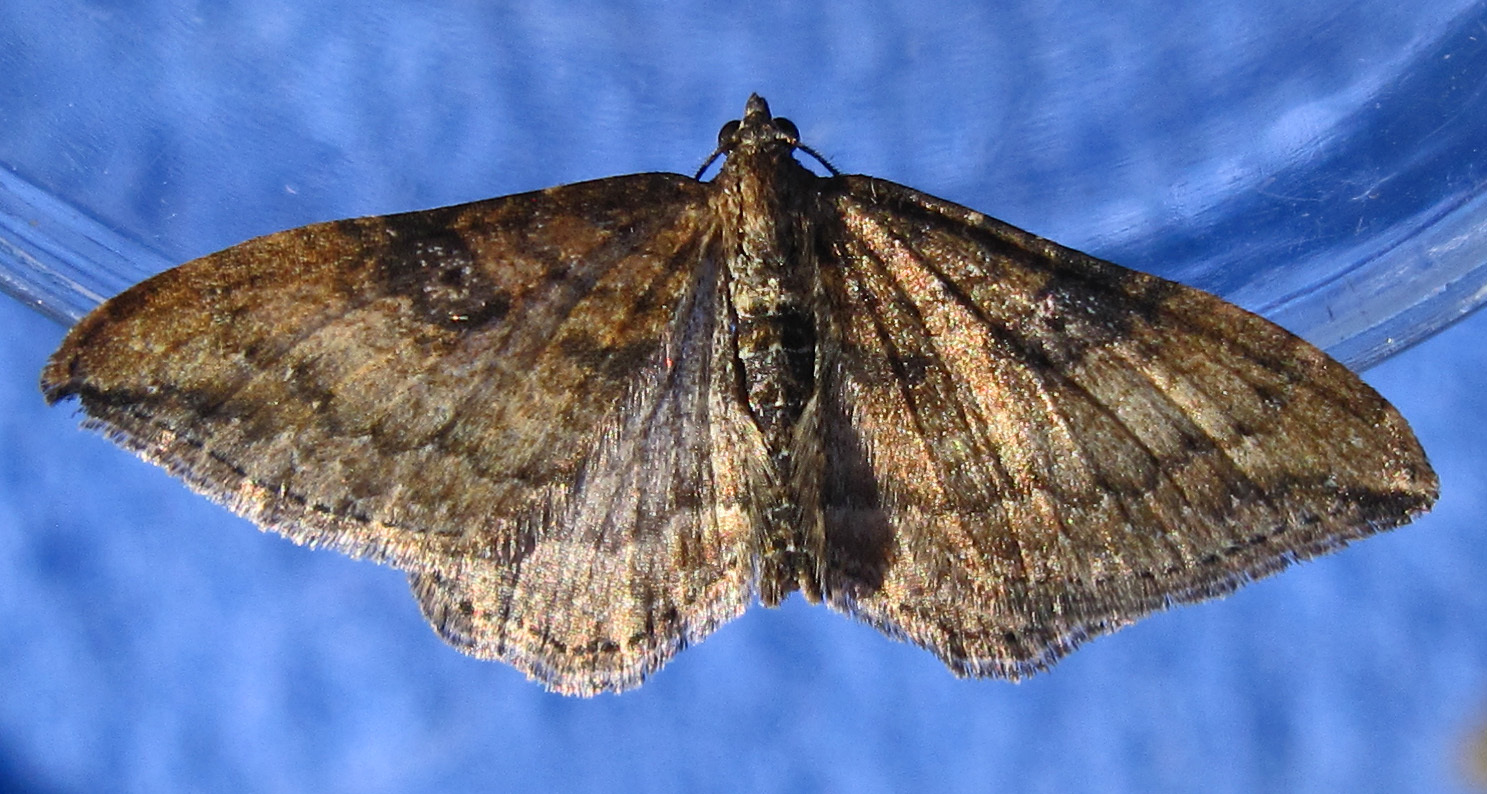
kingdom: Animalia
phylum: Arthropoda
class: Insecta
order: Lepidoptera
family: Geometridae
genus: Orthonama
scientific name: Orthonama obstipata
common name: The gem
